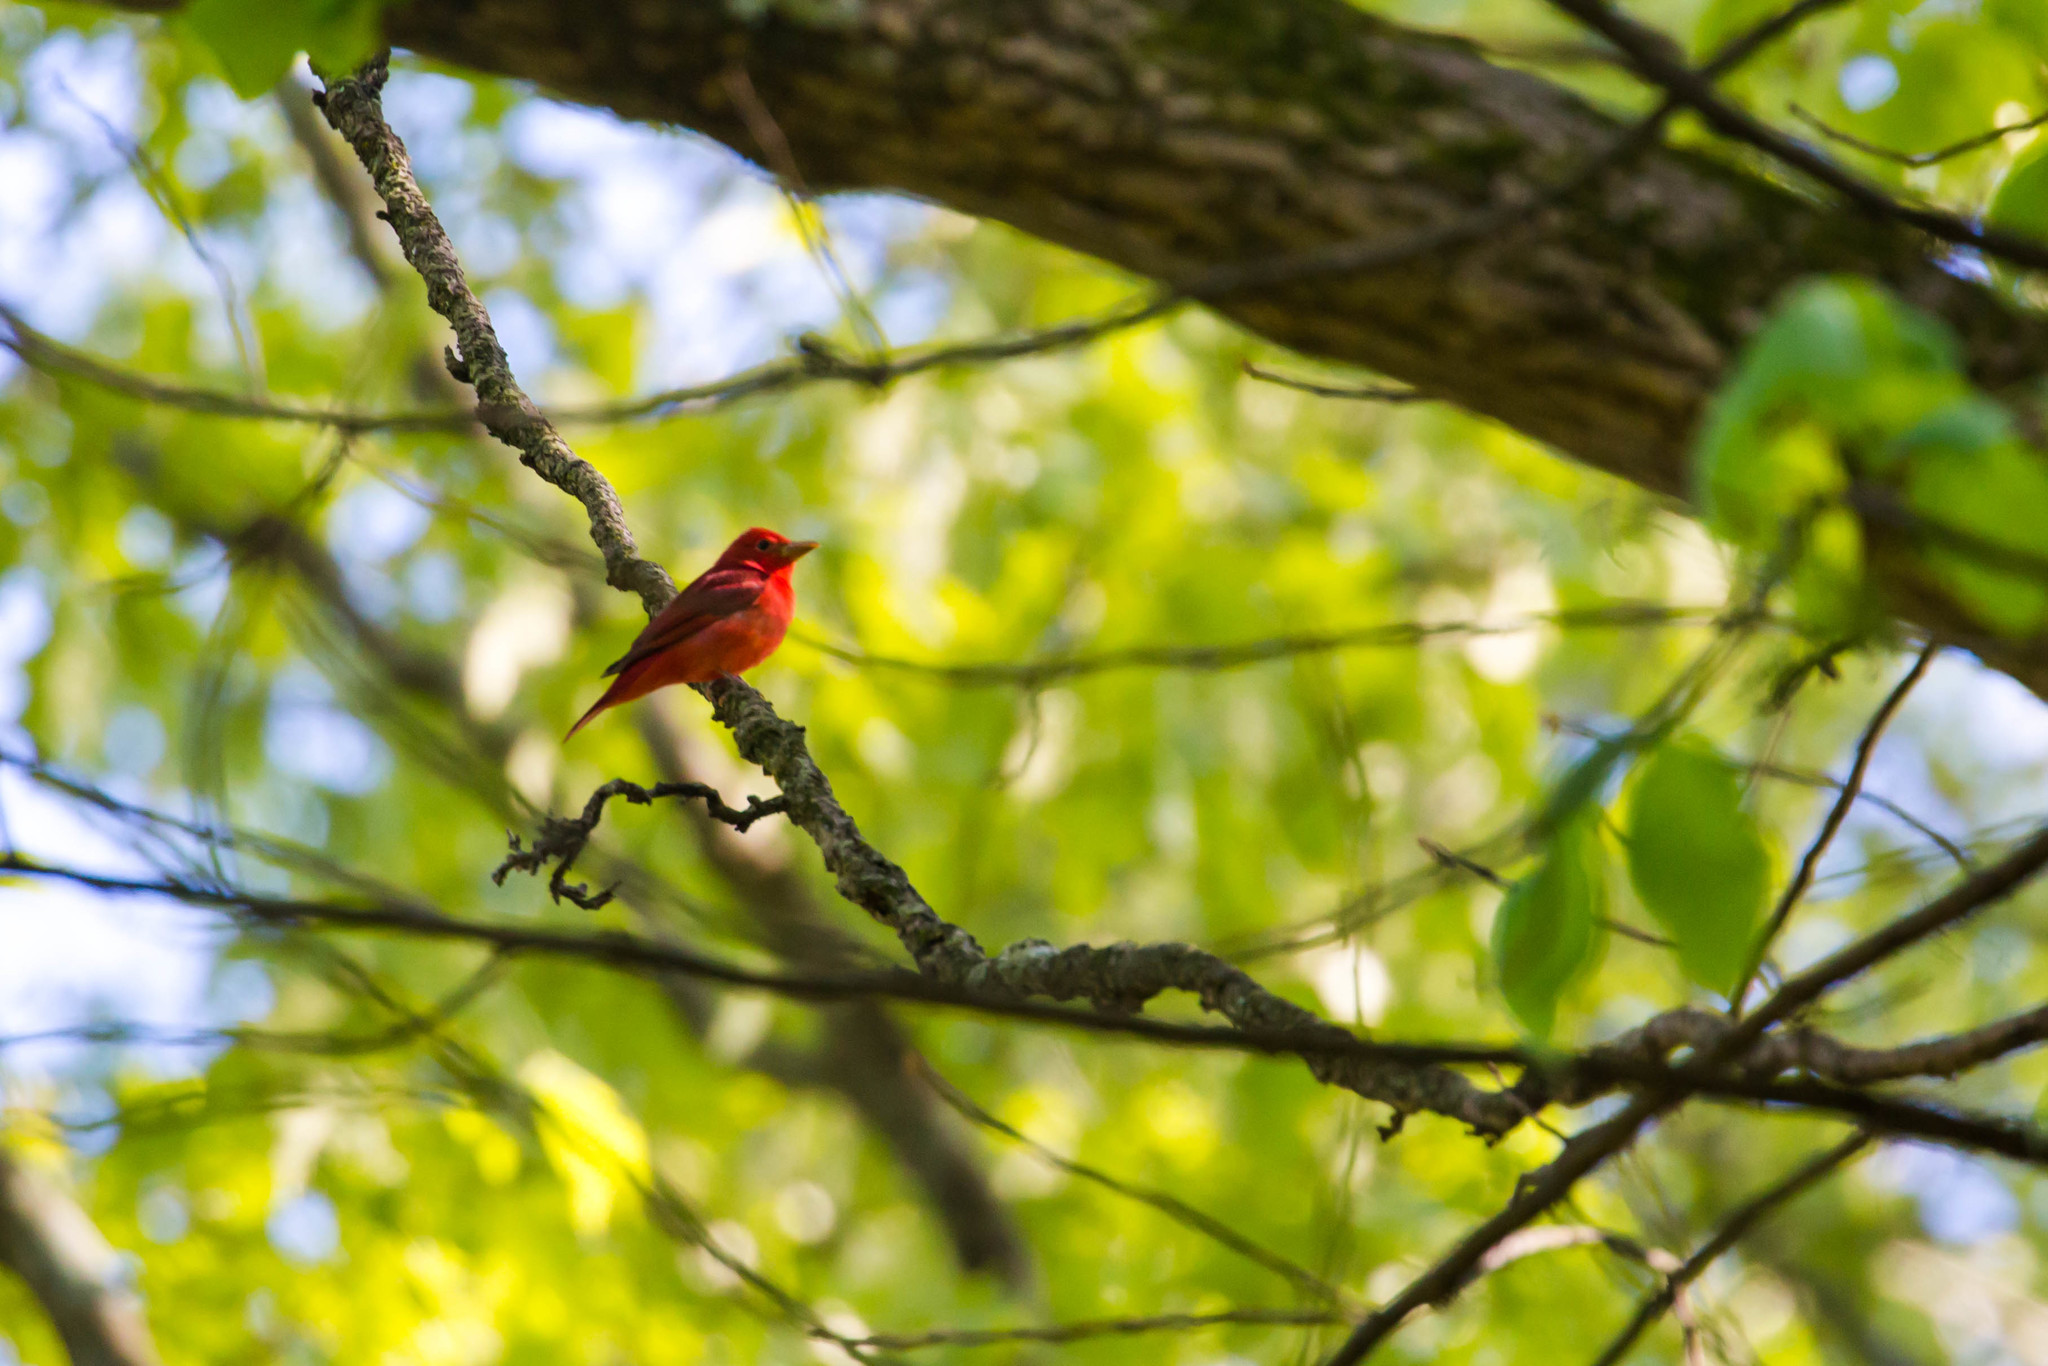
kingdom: Animalia
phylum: Chordata
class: Aves
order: Passeriformes
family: Cardinalidae
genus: Piranga
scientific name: Piranga rubra
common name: Summer tanager
